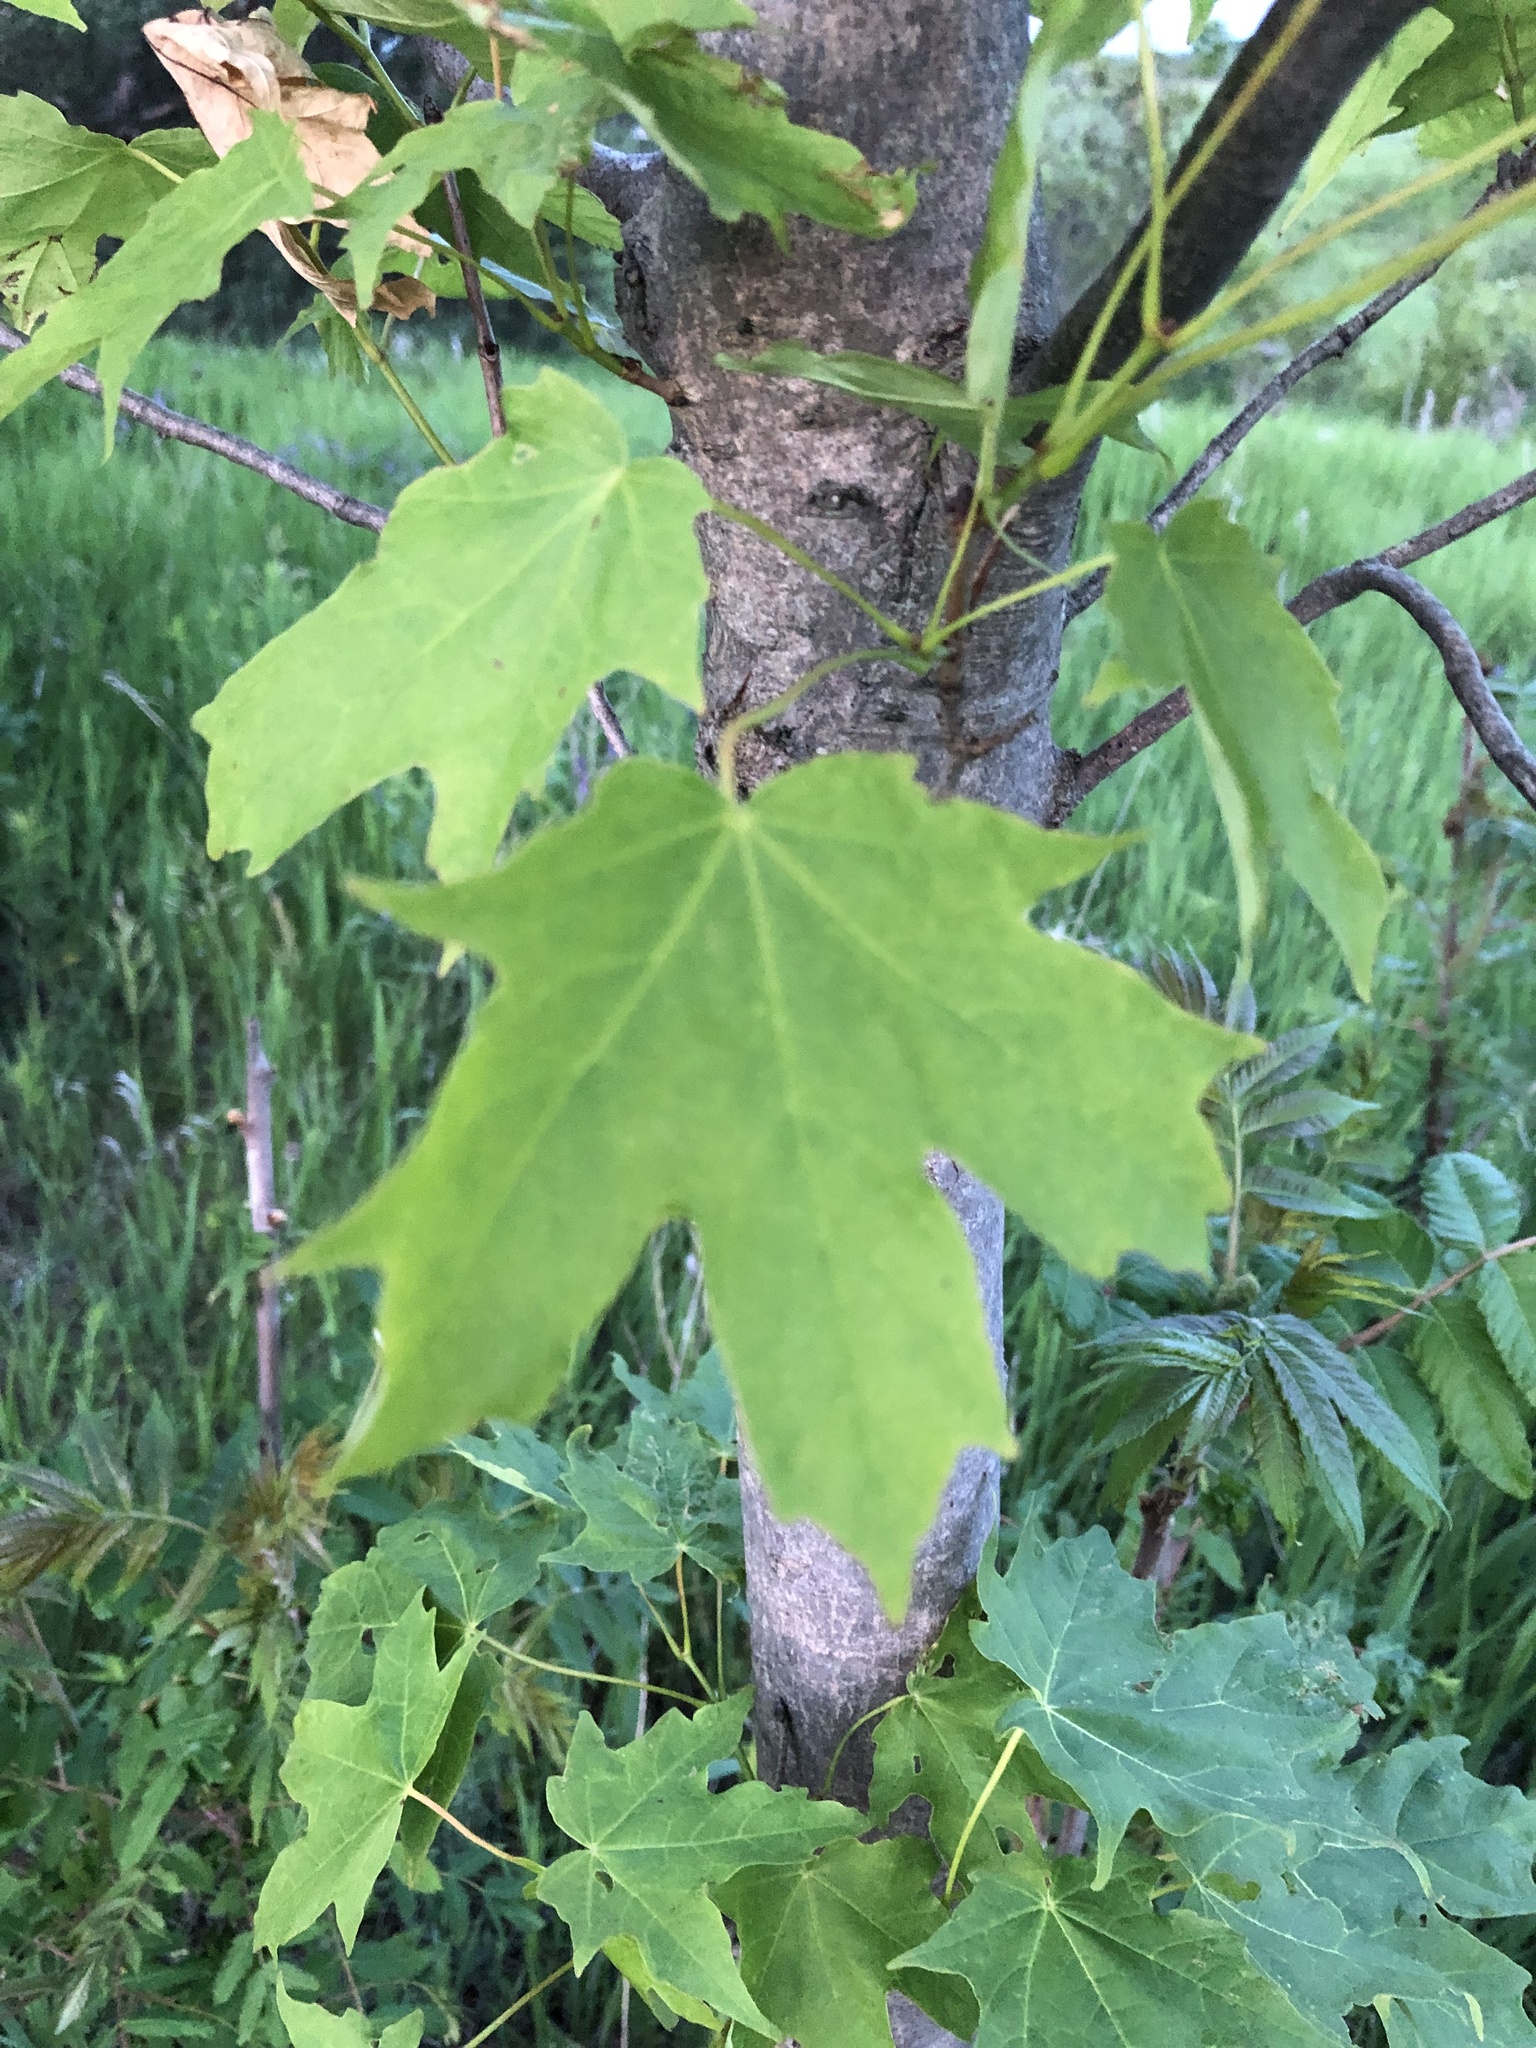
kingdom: Plantae
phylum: Tracheophyta
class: Magnoliopsida
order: Sapindales
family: Sapindaceae
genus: Acer
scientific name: Acer saccharum
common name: Sugar maple
